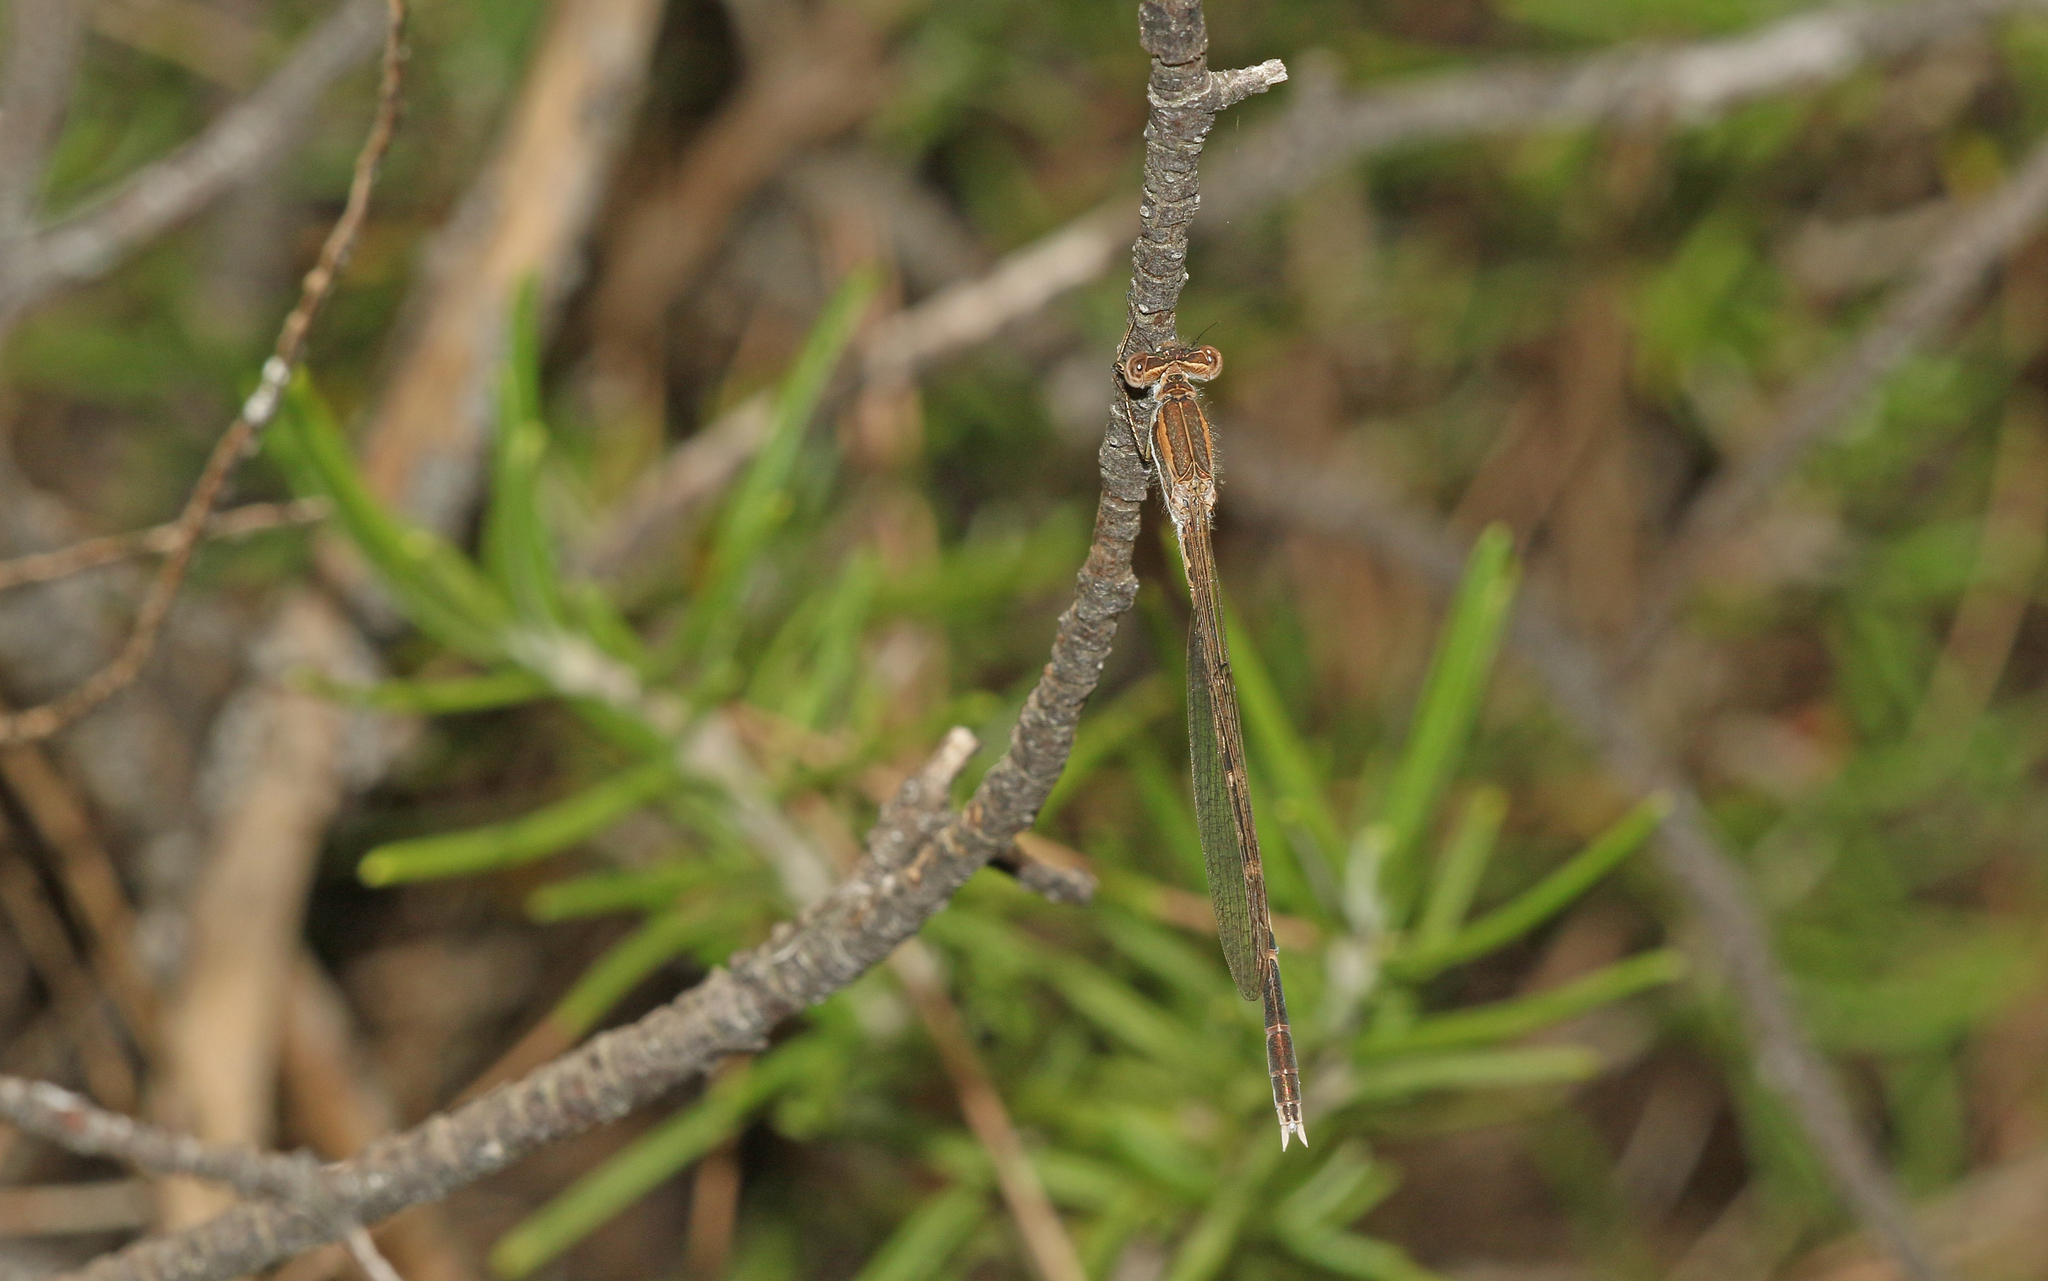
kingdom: Animalia
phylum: Arthropoda
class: Insecta
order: Odonata
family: Lestidae
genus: Sympecma
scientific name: Sympecma fusca
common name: Common winter damsel
